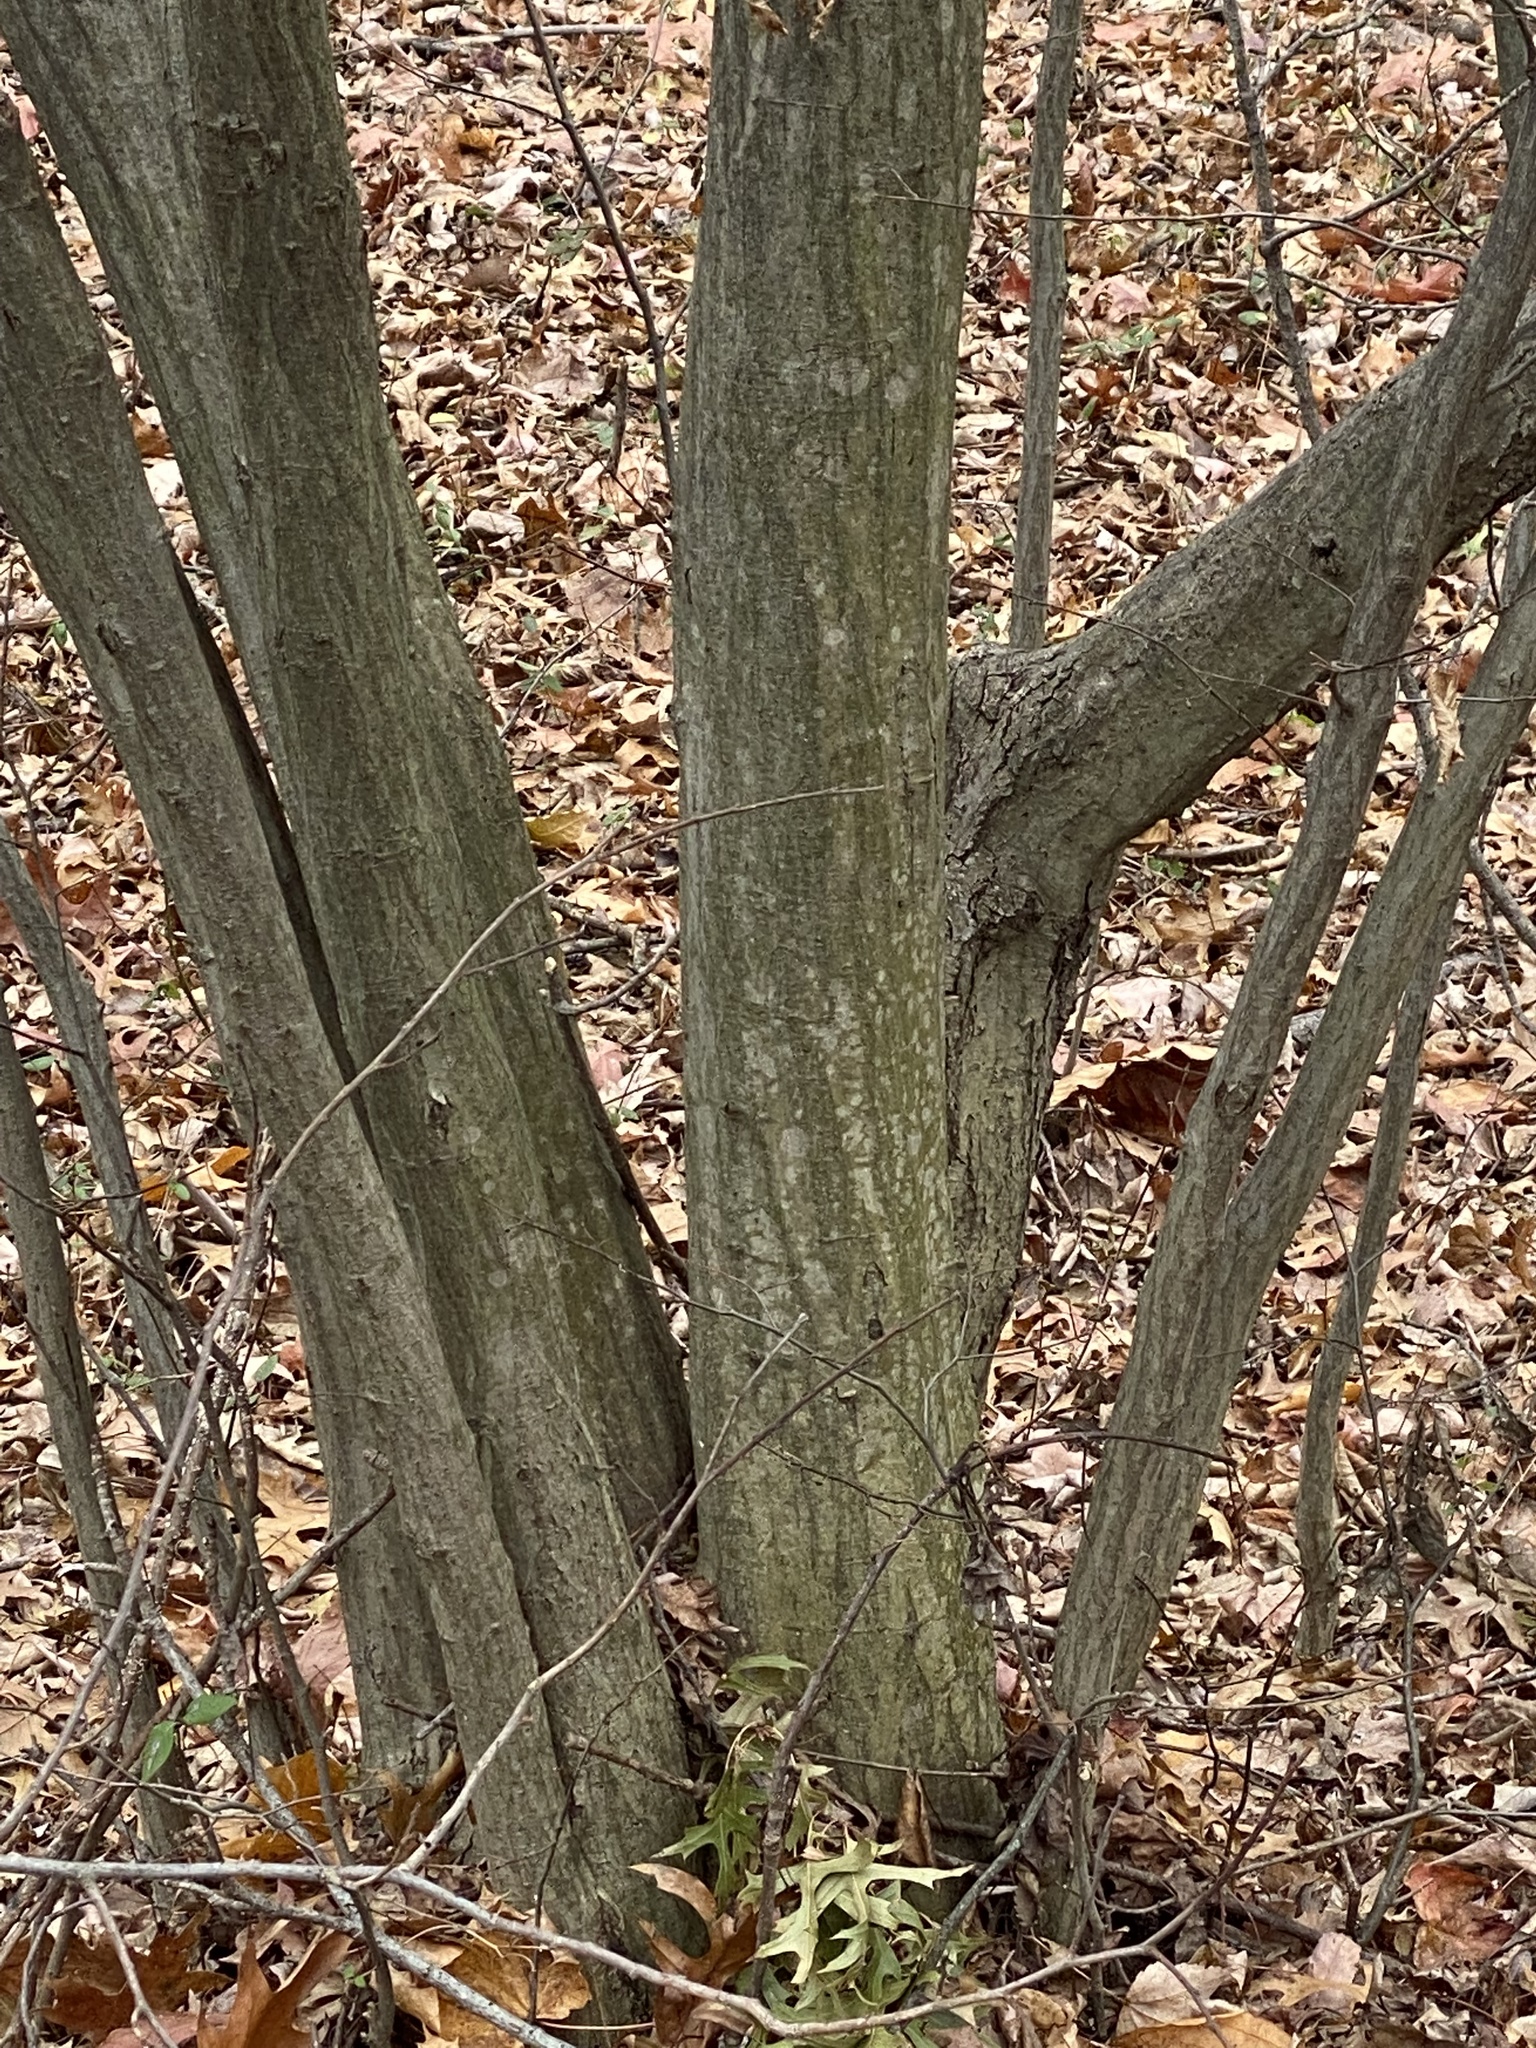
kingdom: Plantae
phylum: Tracheophyta
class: Magnoliopsida
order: Fagales
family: Betulaceae
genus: Carpinus
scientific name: Carpinus caroliniana
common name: American hornbeam
